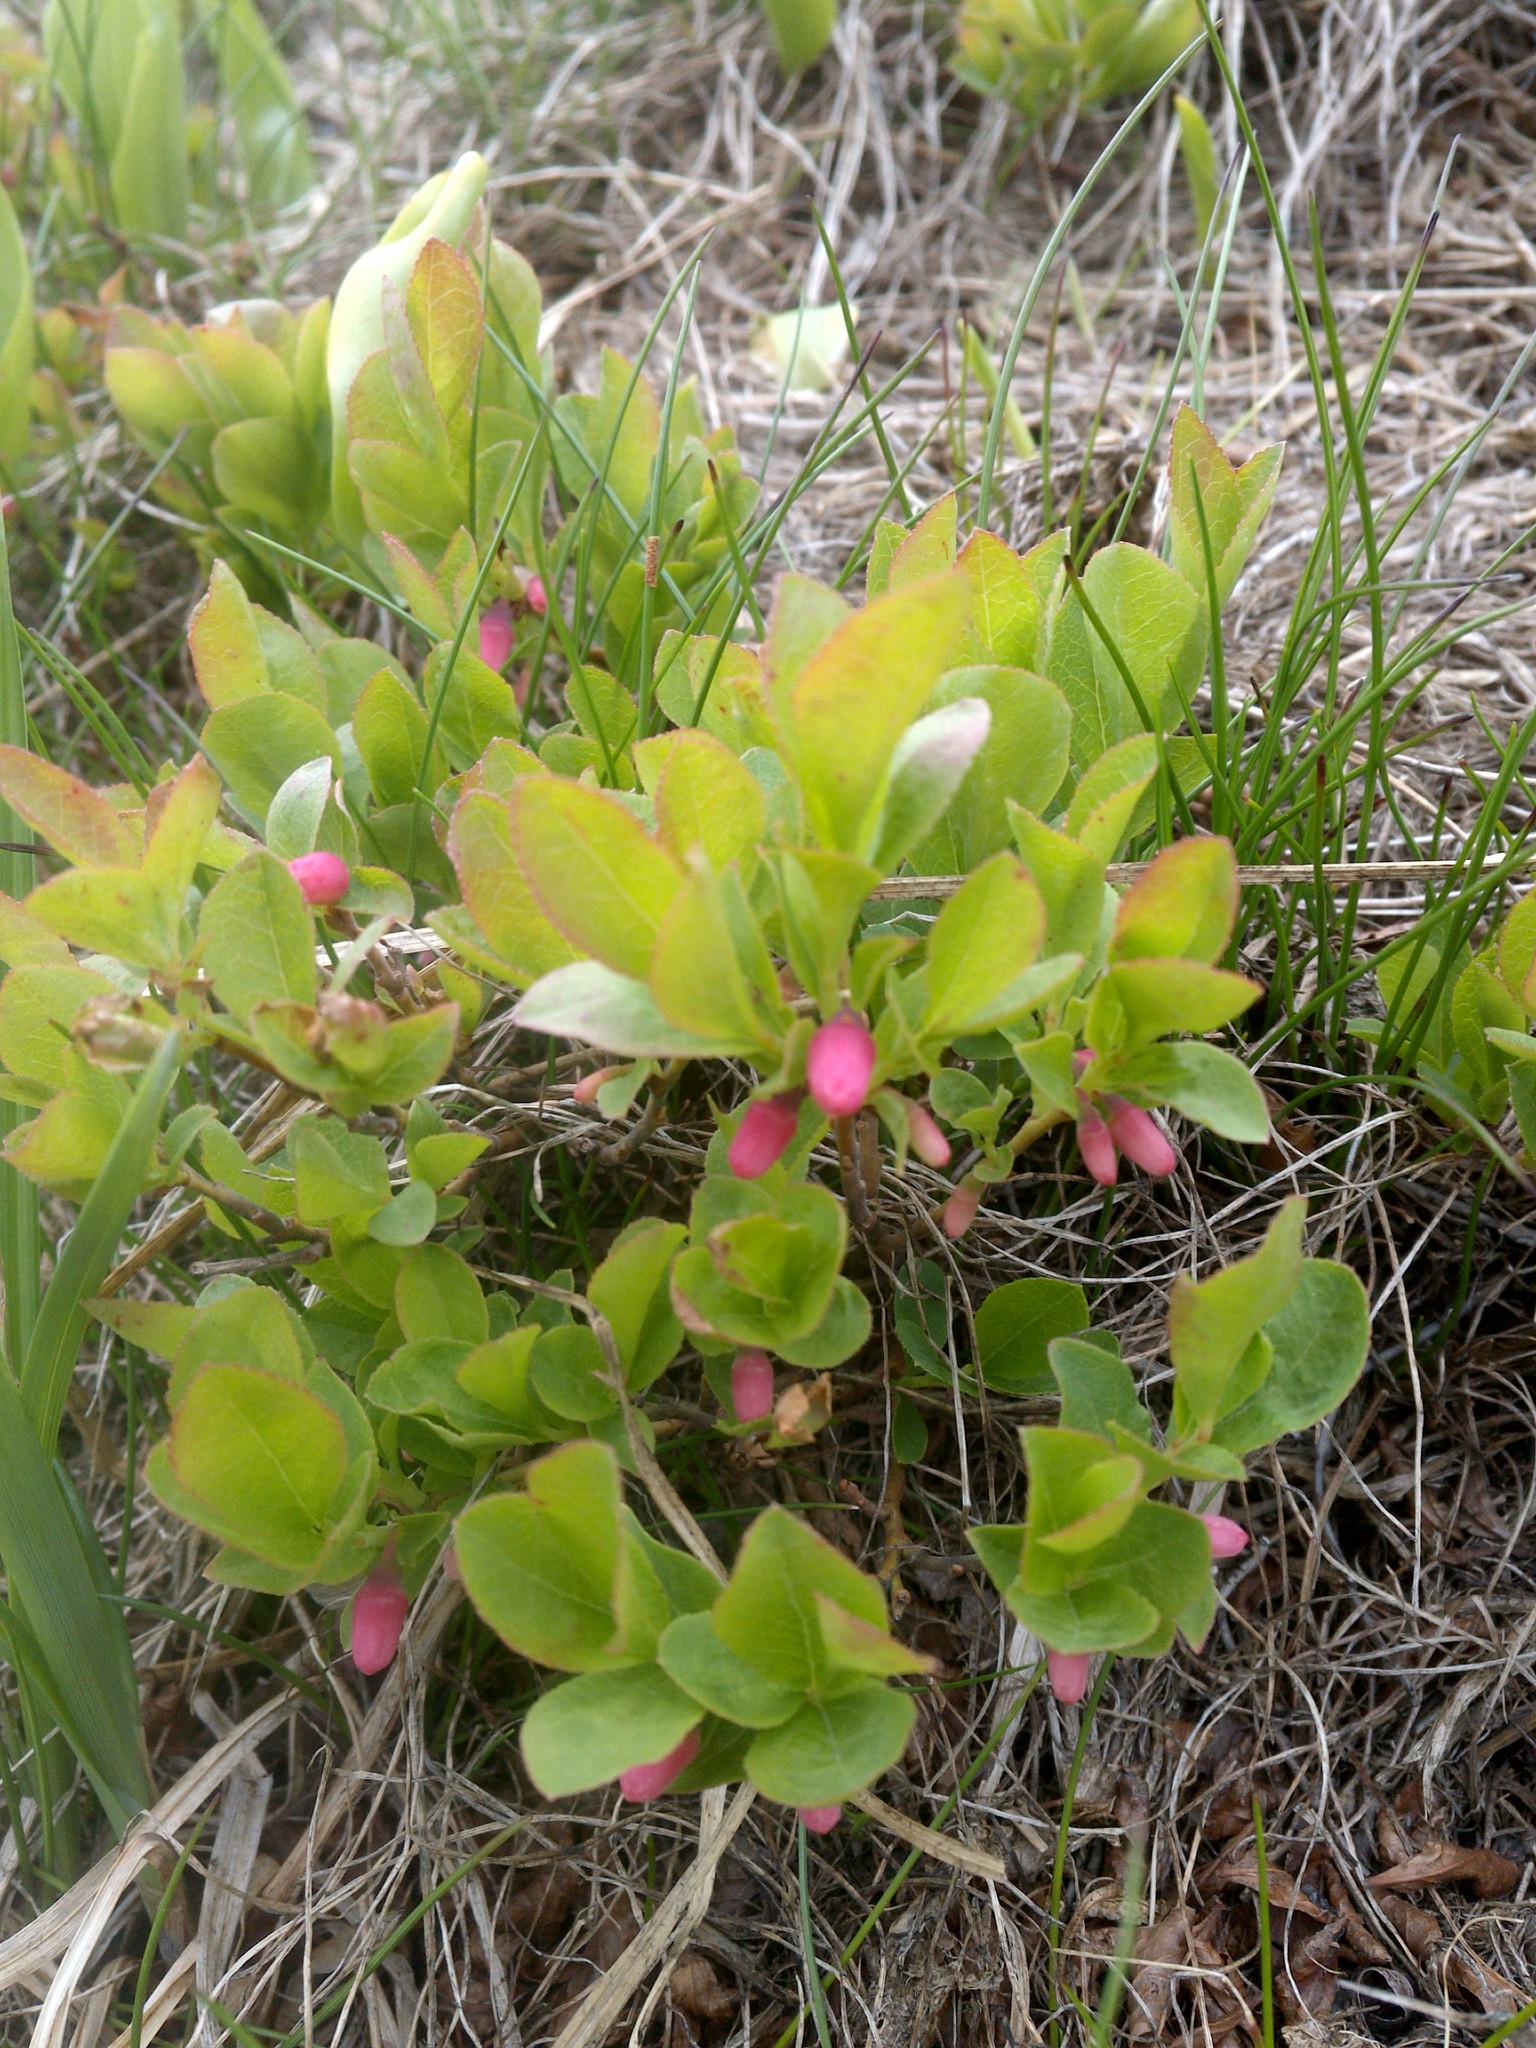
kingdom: Plantae
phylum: Tracheophyta
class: Magnoliopsida
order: Ericales
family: Ericaceae
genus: Vaccinium
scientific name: Vaccinium cespitosum
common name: Dwarf bilberry
